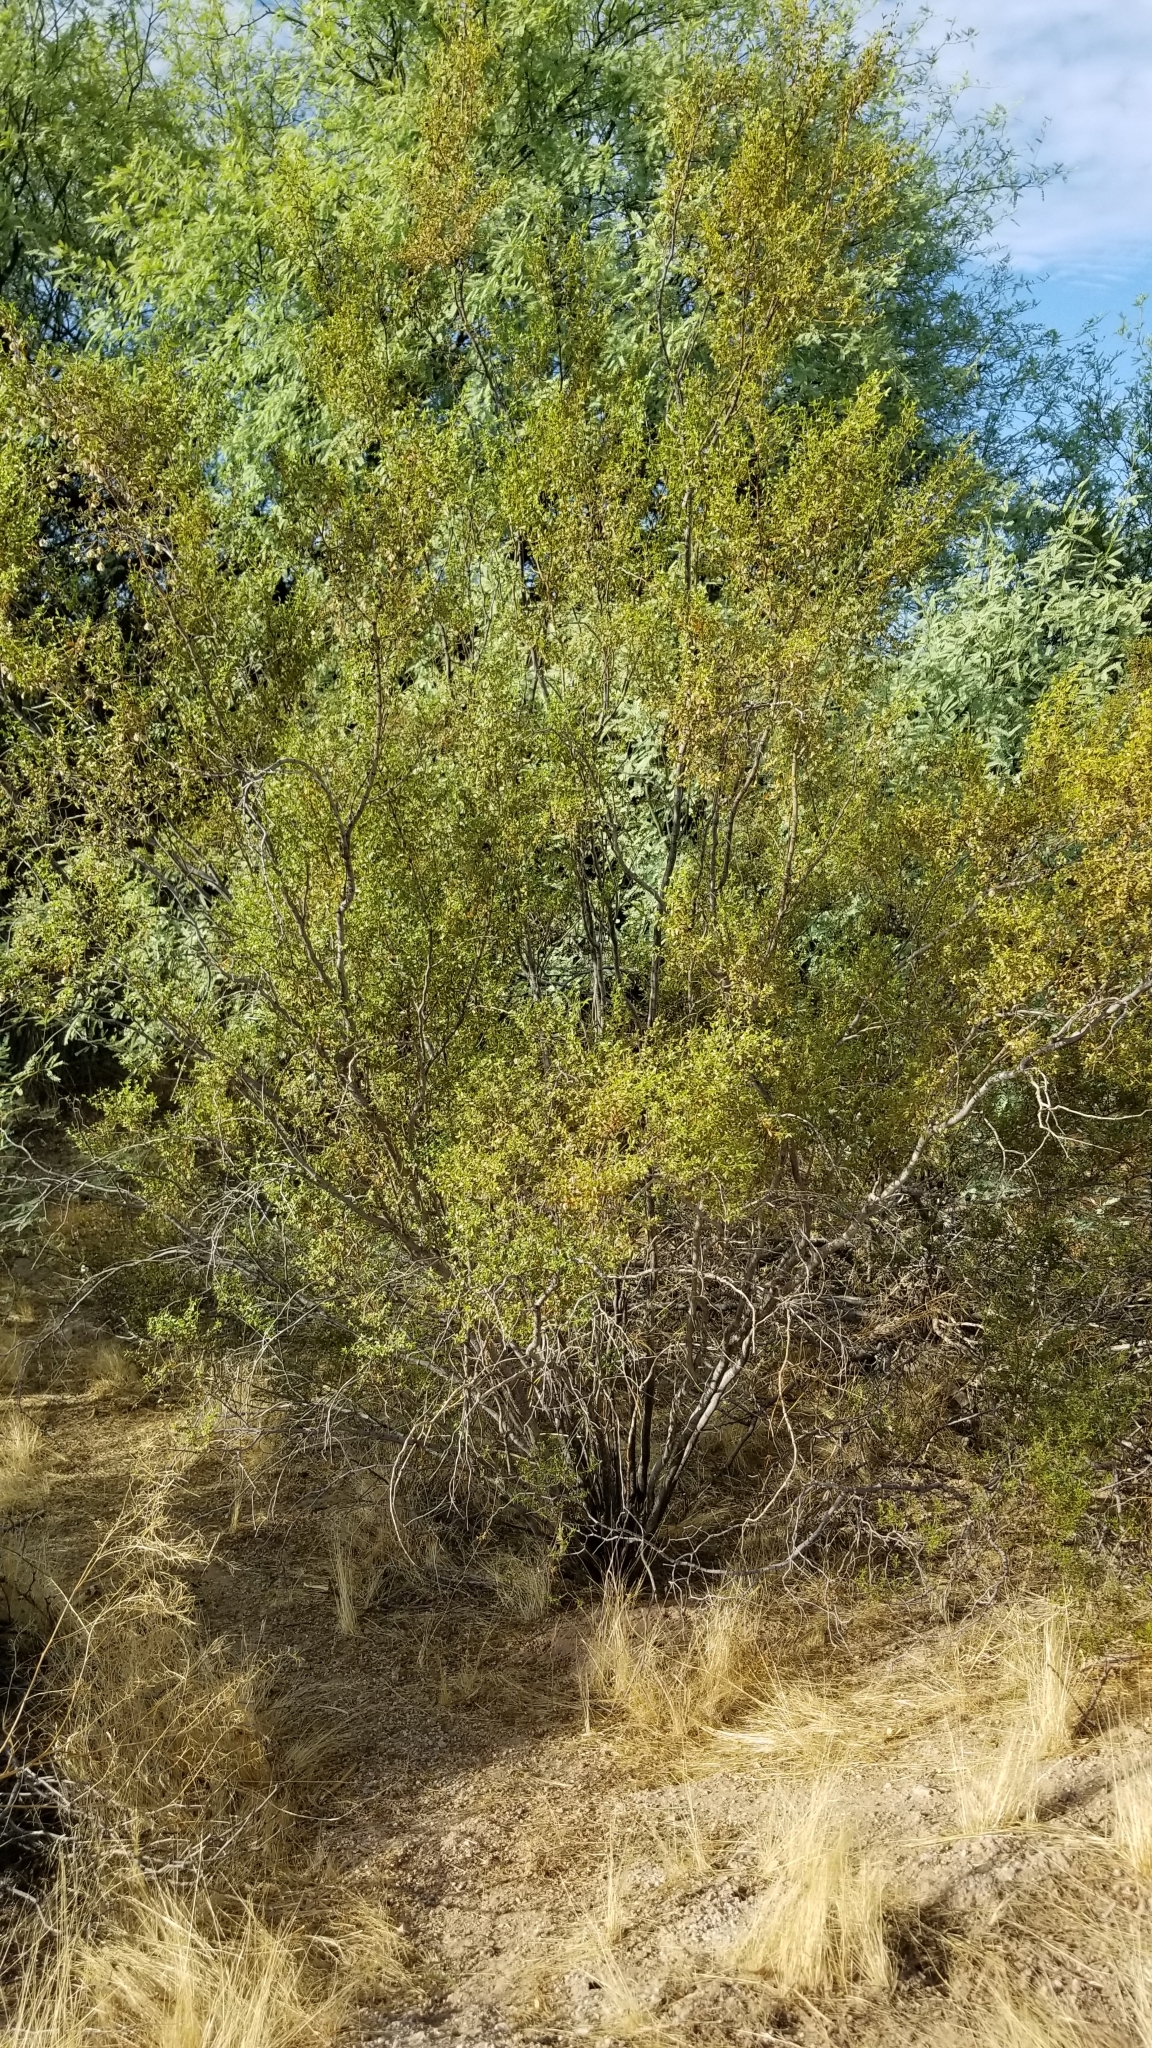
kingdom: Plantae
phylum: Tracheophyta
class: Magnoliopsida
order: Zygophyllales
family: Zygophyllaceae
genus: Larrea
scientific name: Larrea tridentata
